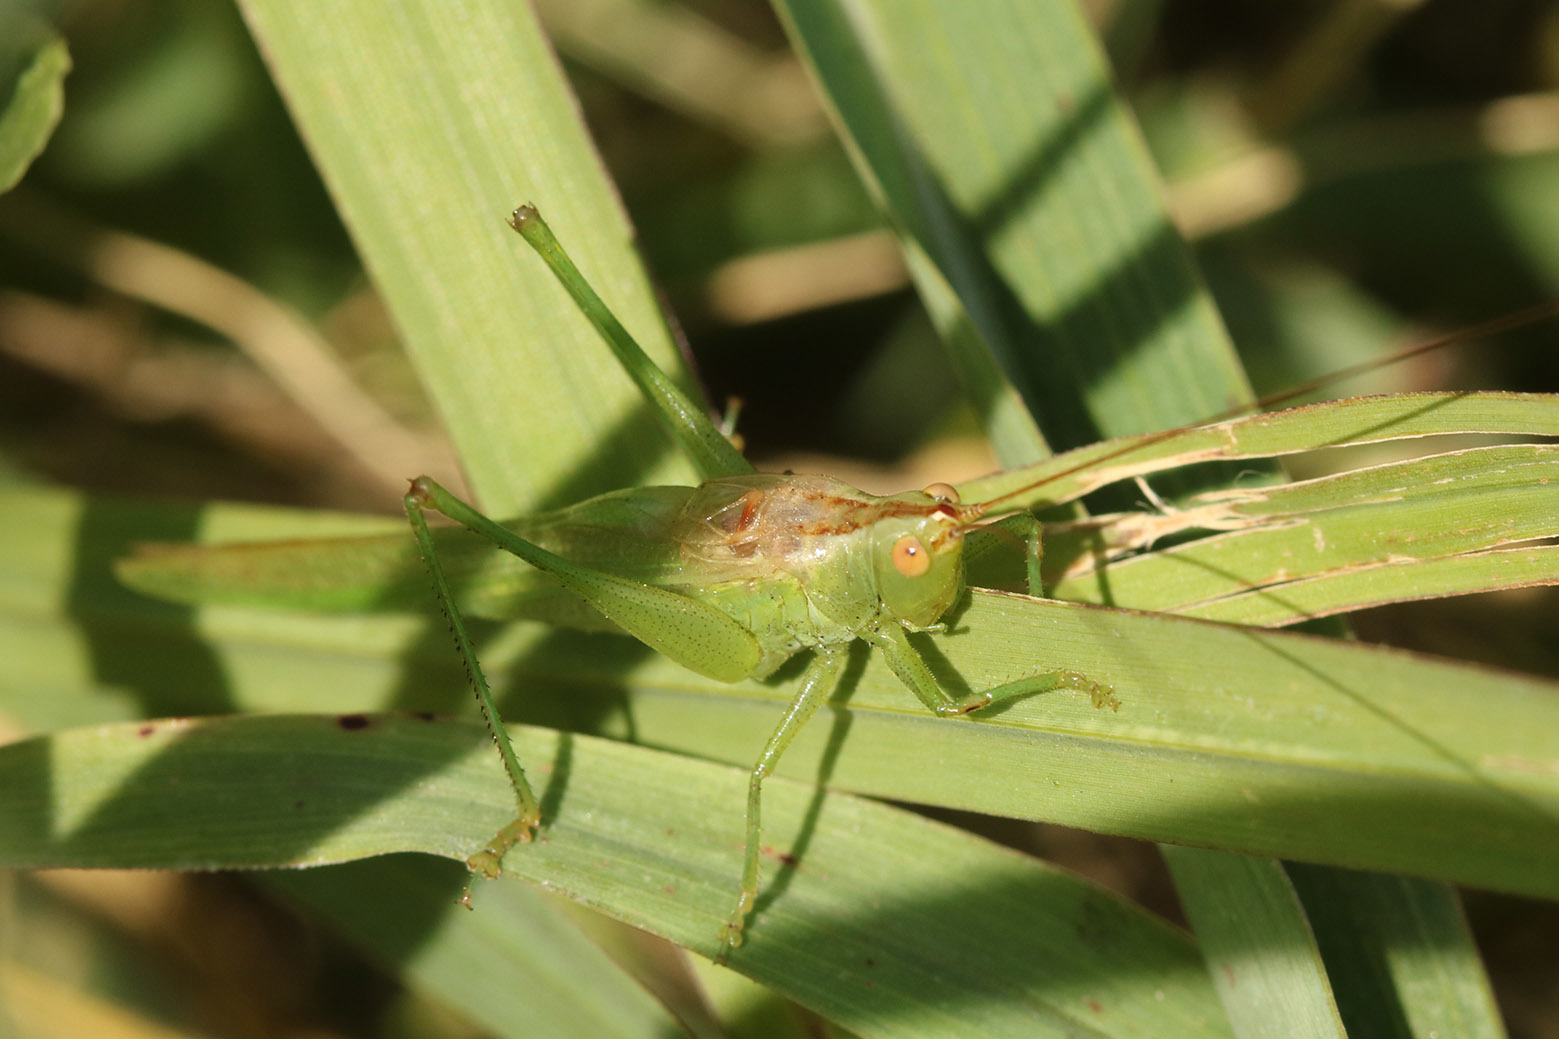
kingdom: Animalia
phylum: Arthropoda
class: Insecta
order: Orthoptera
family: Tettigoniidae
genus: Conocephalus
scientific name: Conocephalus longipes
